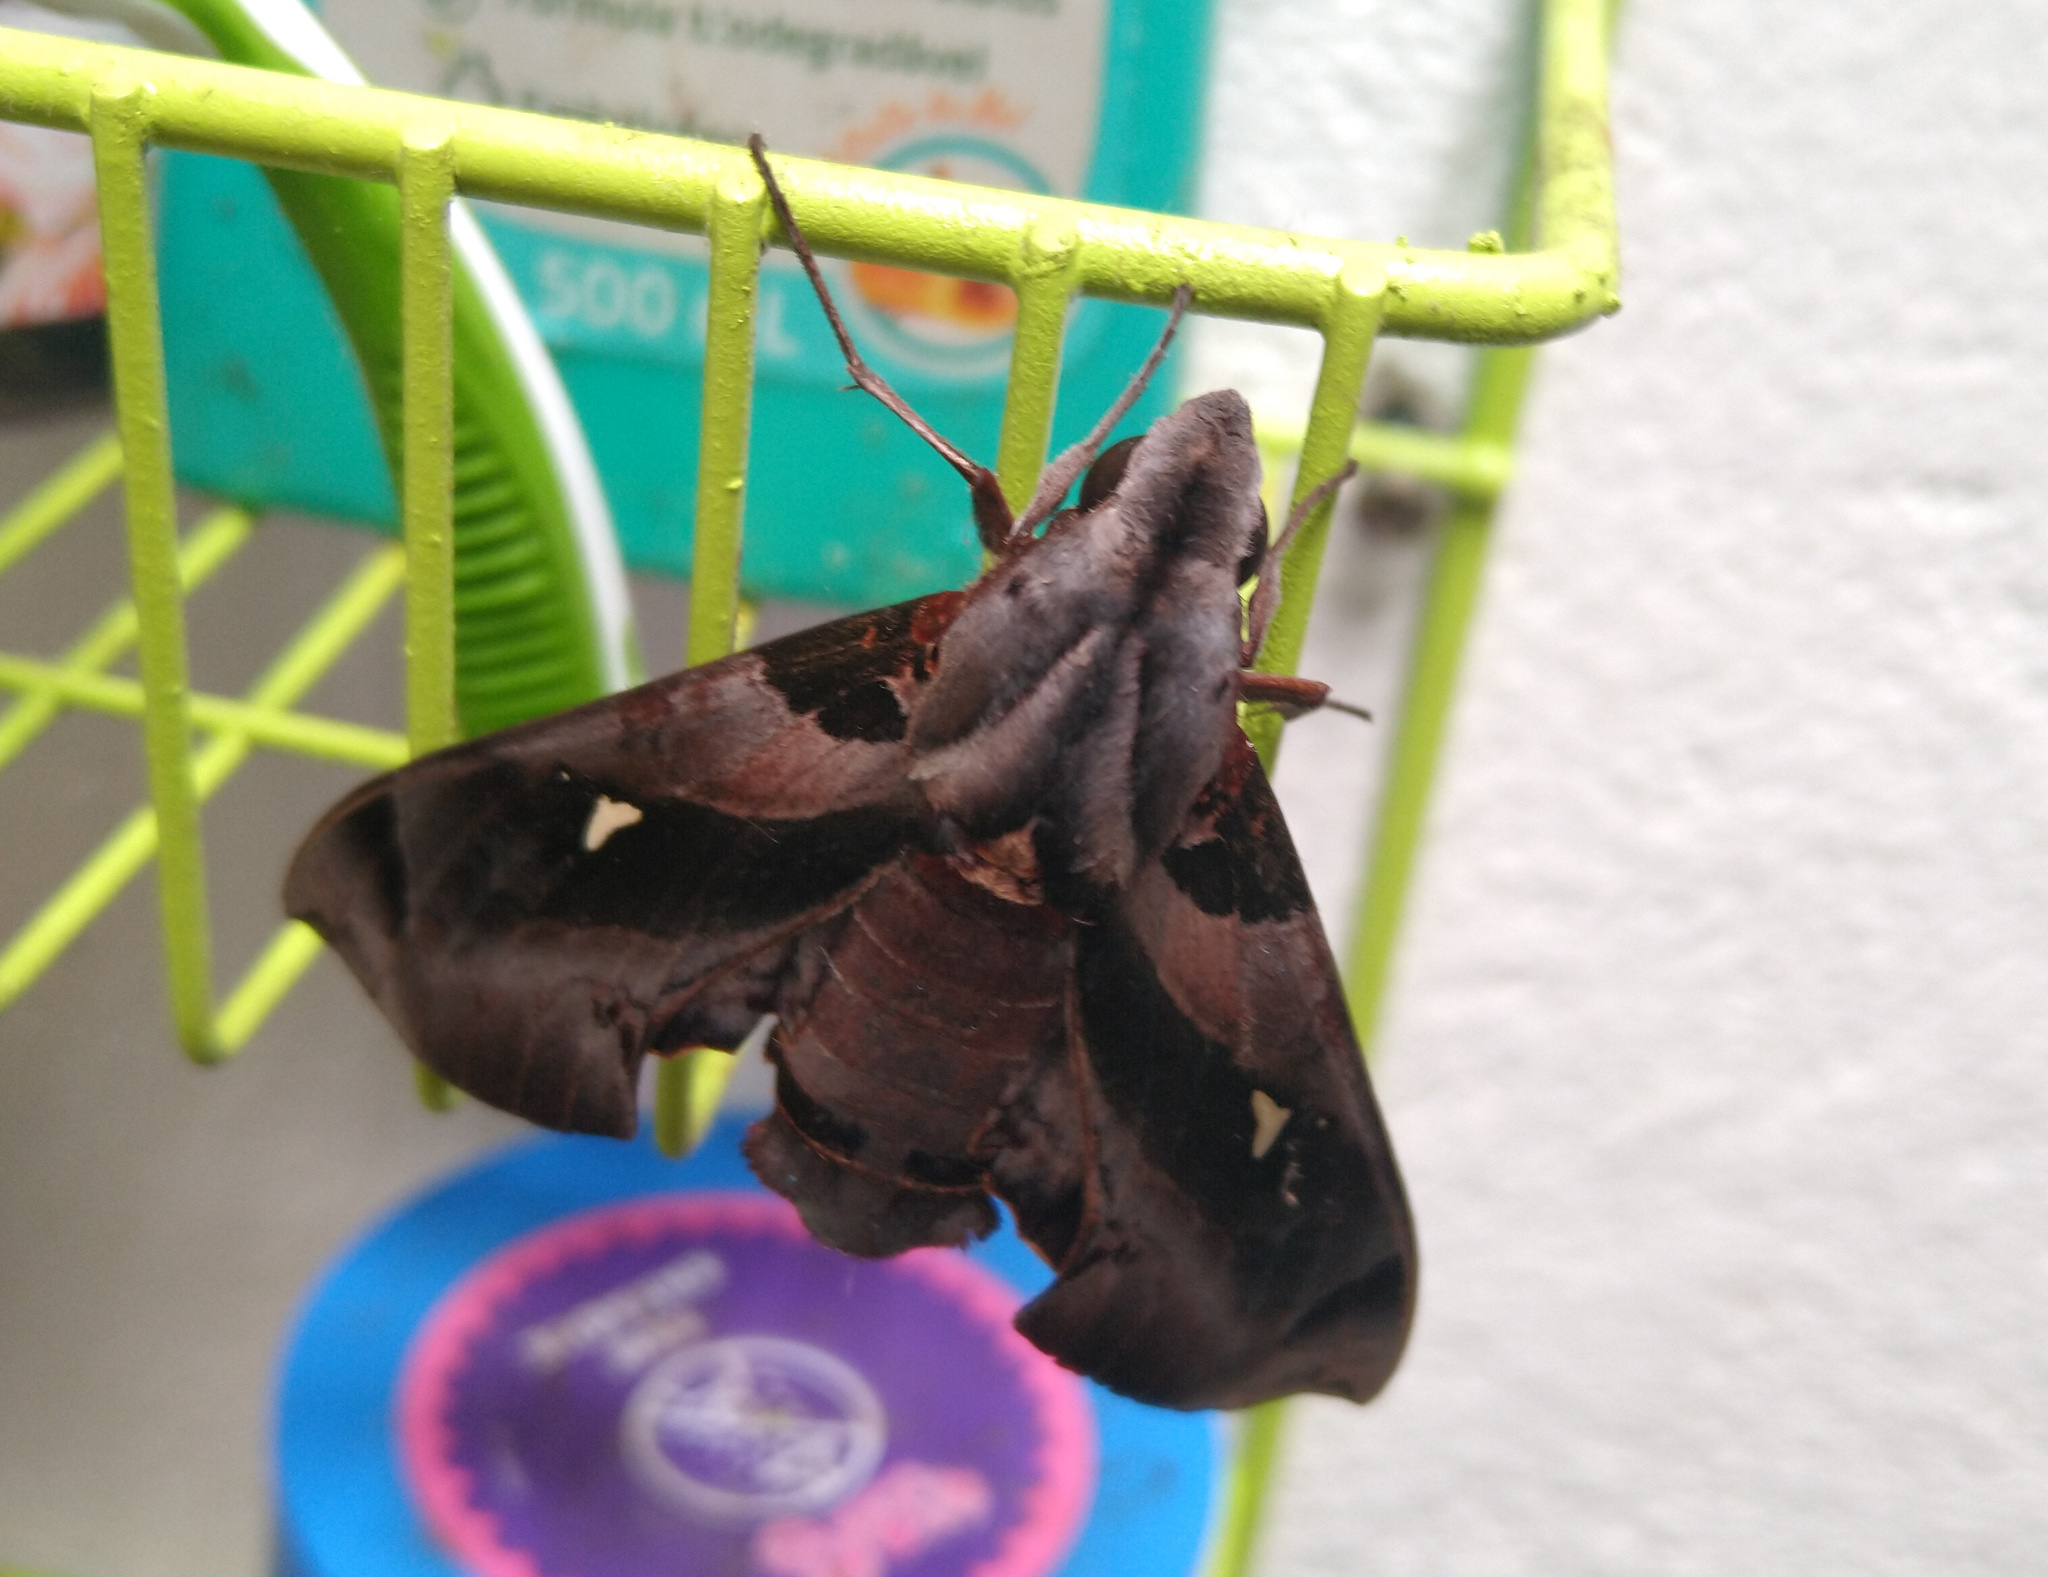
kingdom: Animalia
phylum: Arthropoda
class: Insecta
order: Lepidoptera
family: Sphingidae
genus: Madoryx
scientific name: Madoryx plutonius
